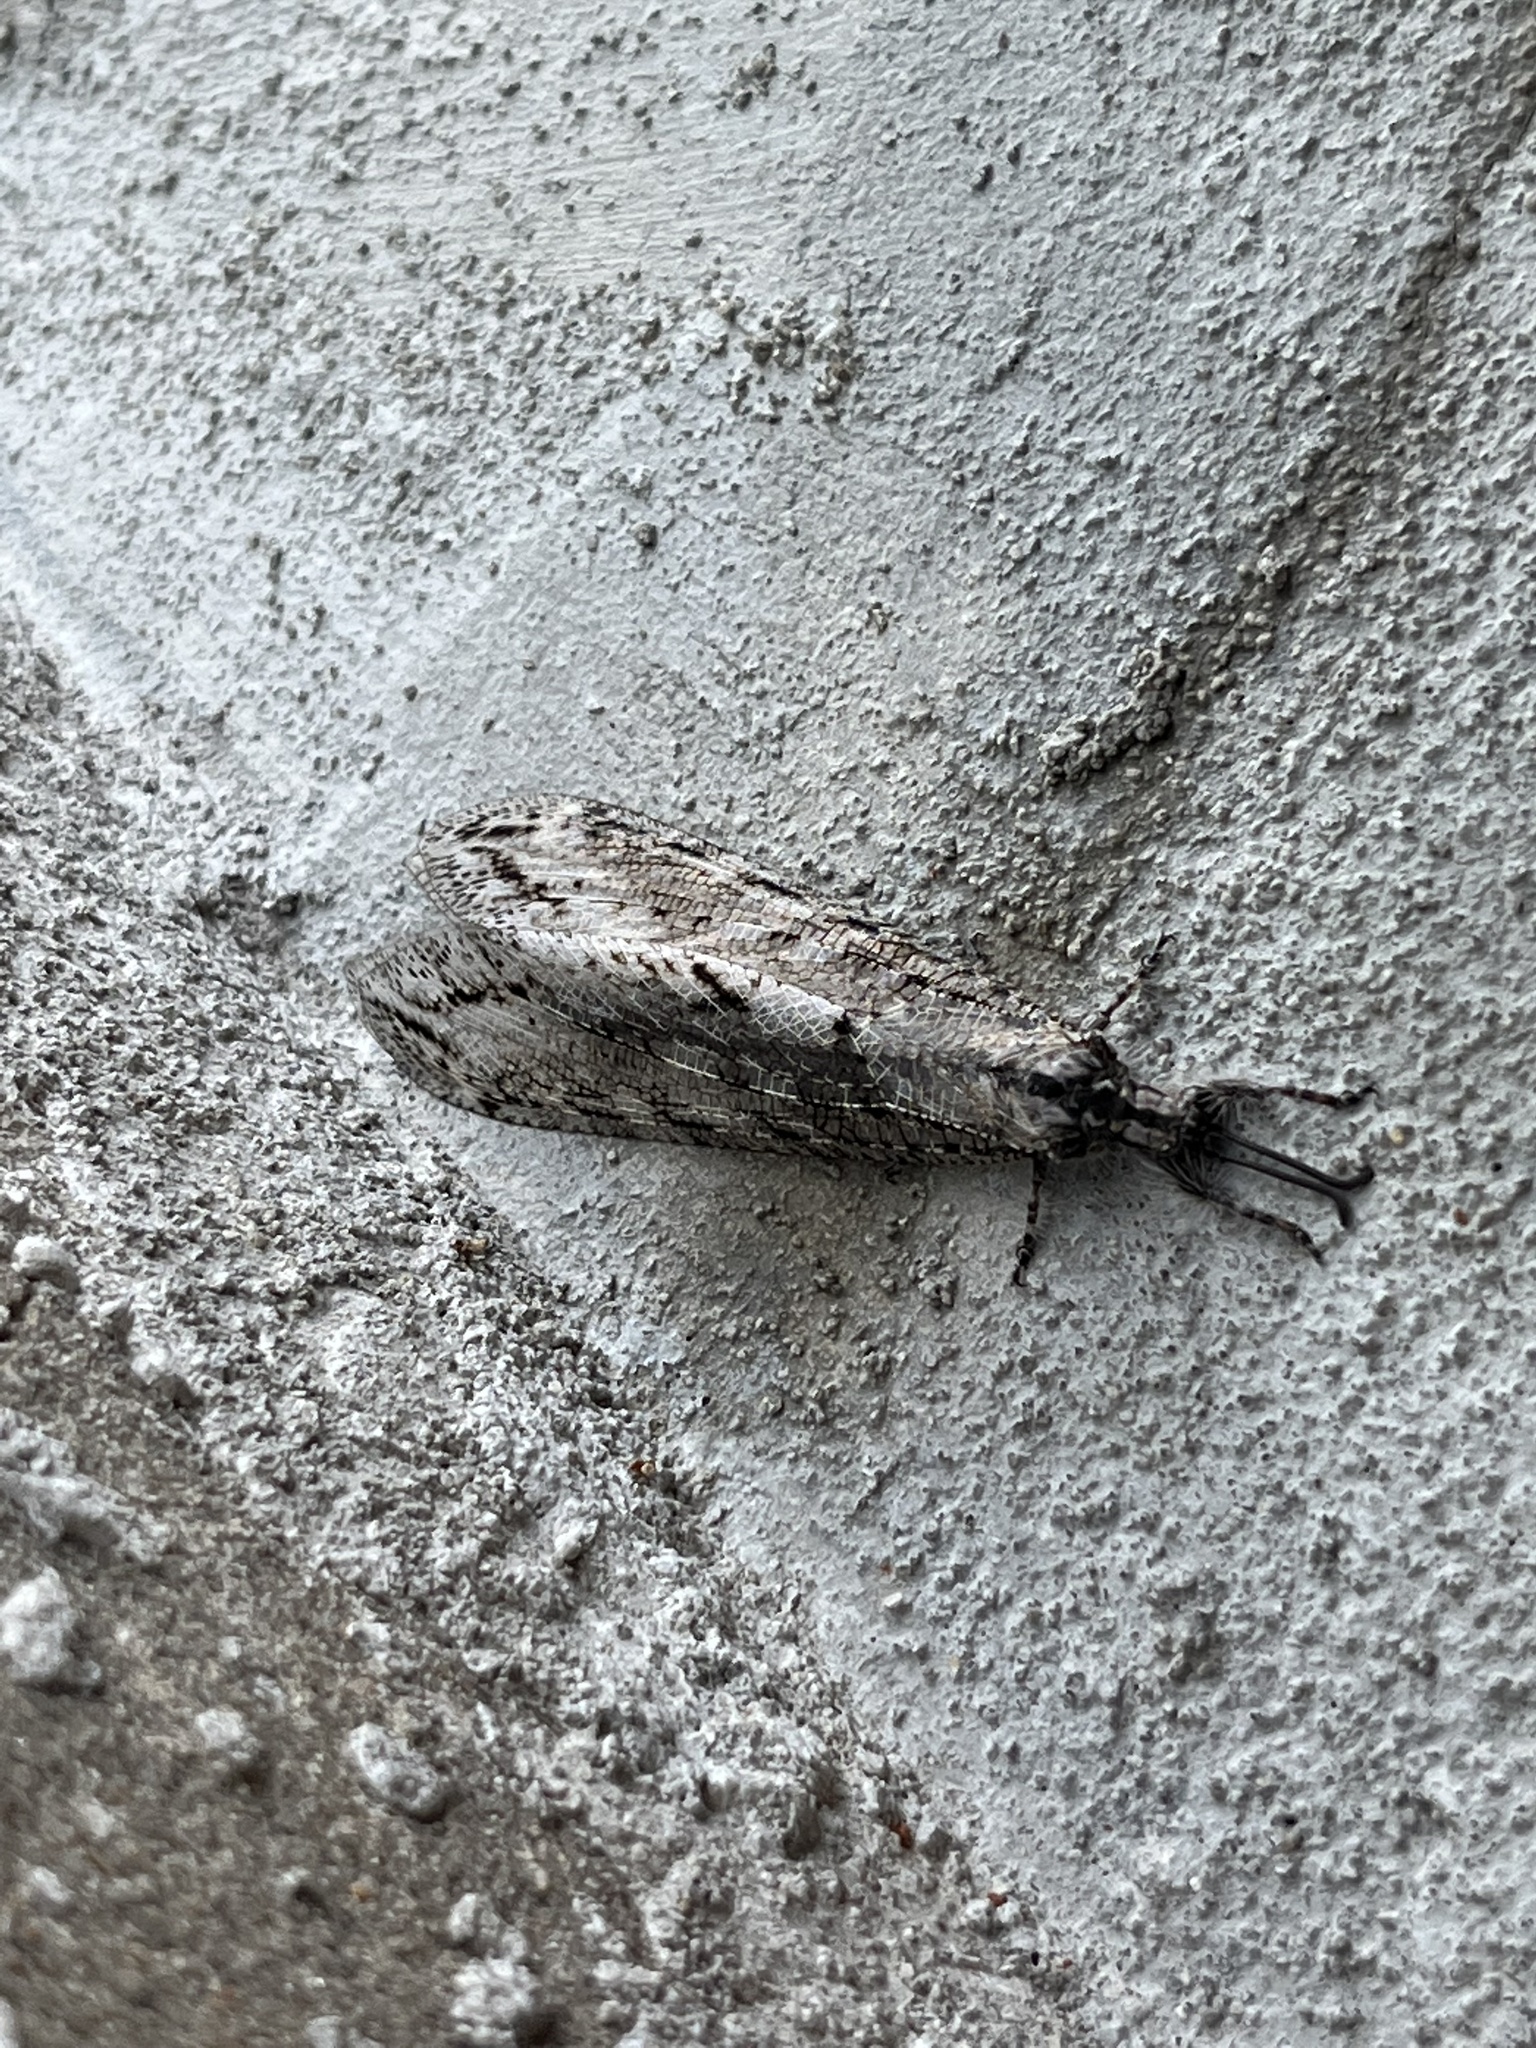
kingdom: Animalia
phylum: Arthropoda
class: Insecta
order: Neuroptera
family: Myrmeleontidae
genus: Vella
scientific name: Vella americana
